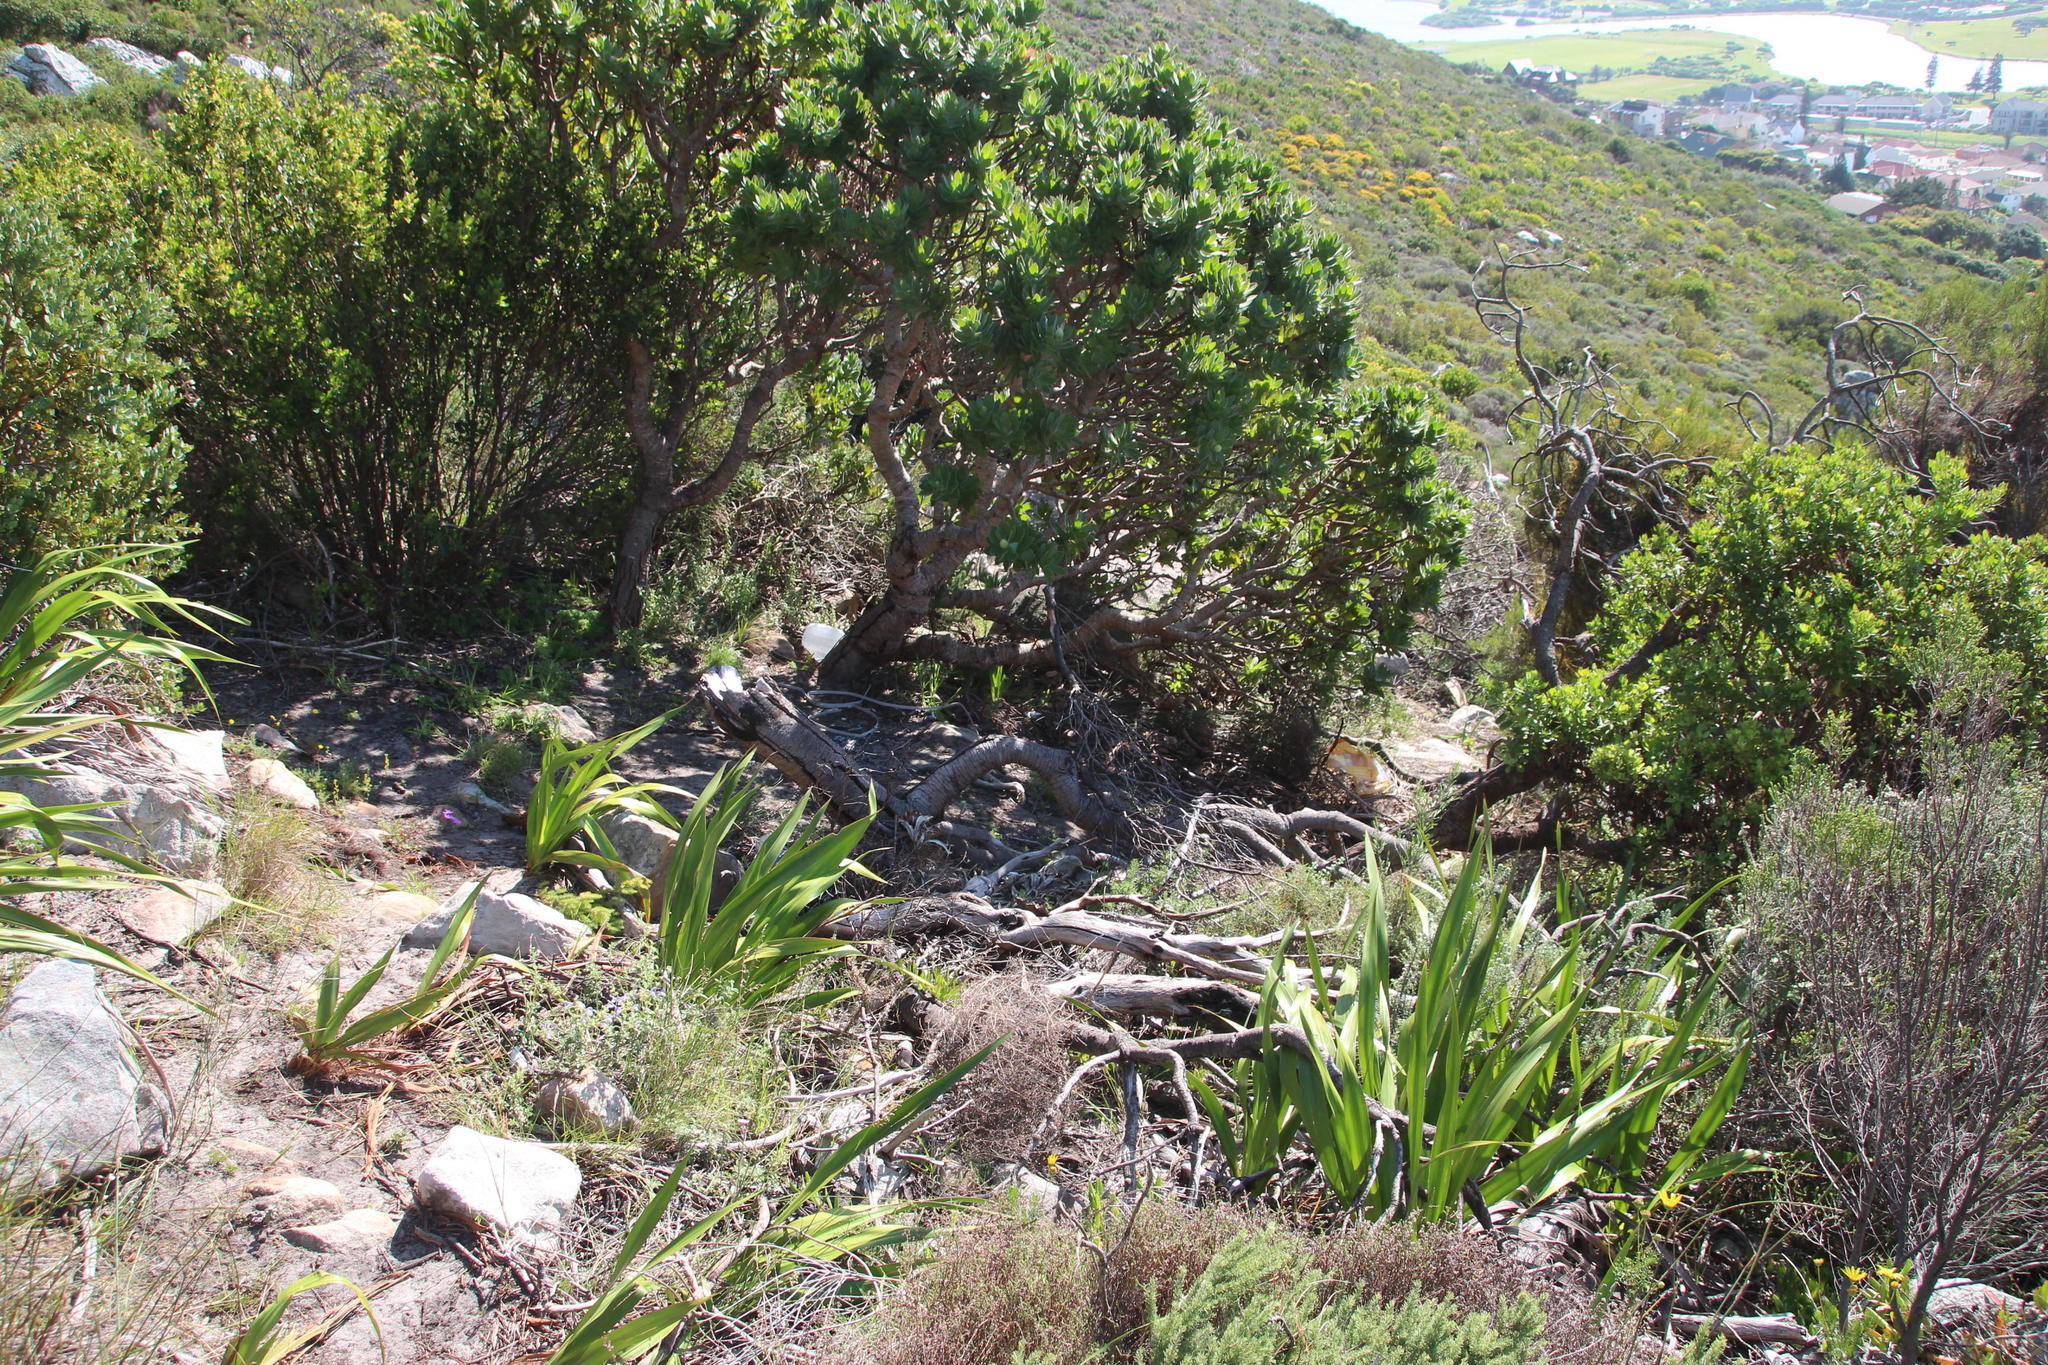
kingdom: Plantae
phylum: Tracheophyta
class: Magnoliopsida
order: Proteales
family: Proteaceae
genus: Leucospermum
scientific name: Leucospermum conocarpodendron
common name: Tree pincushion
